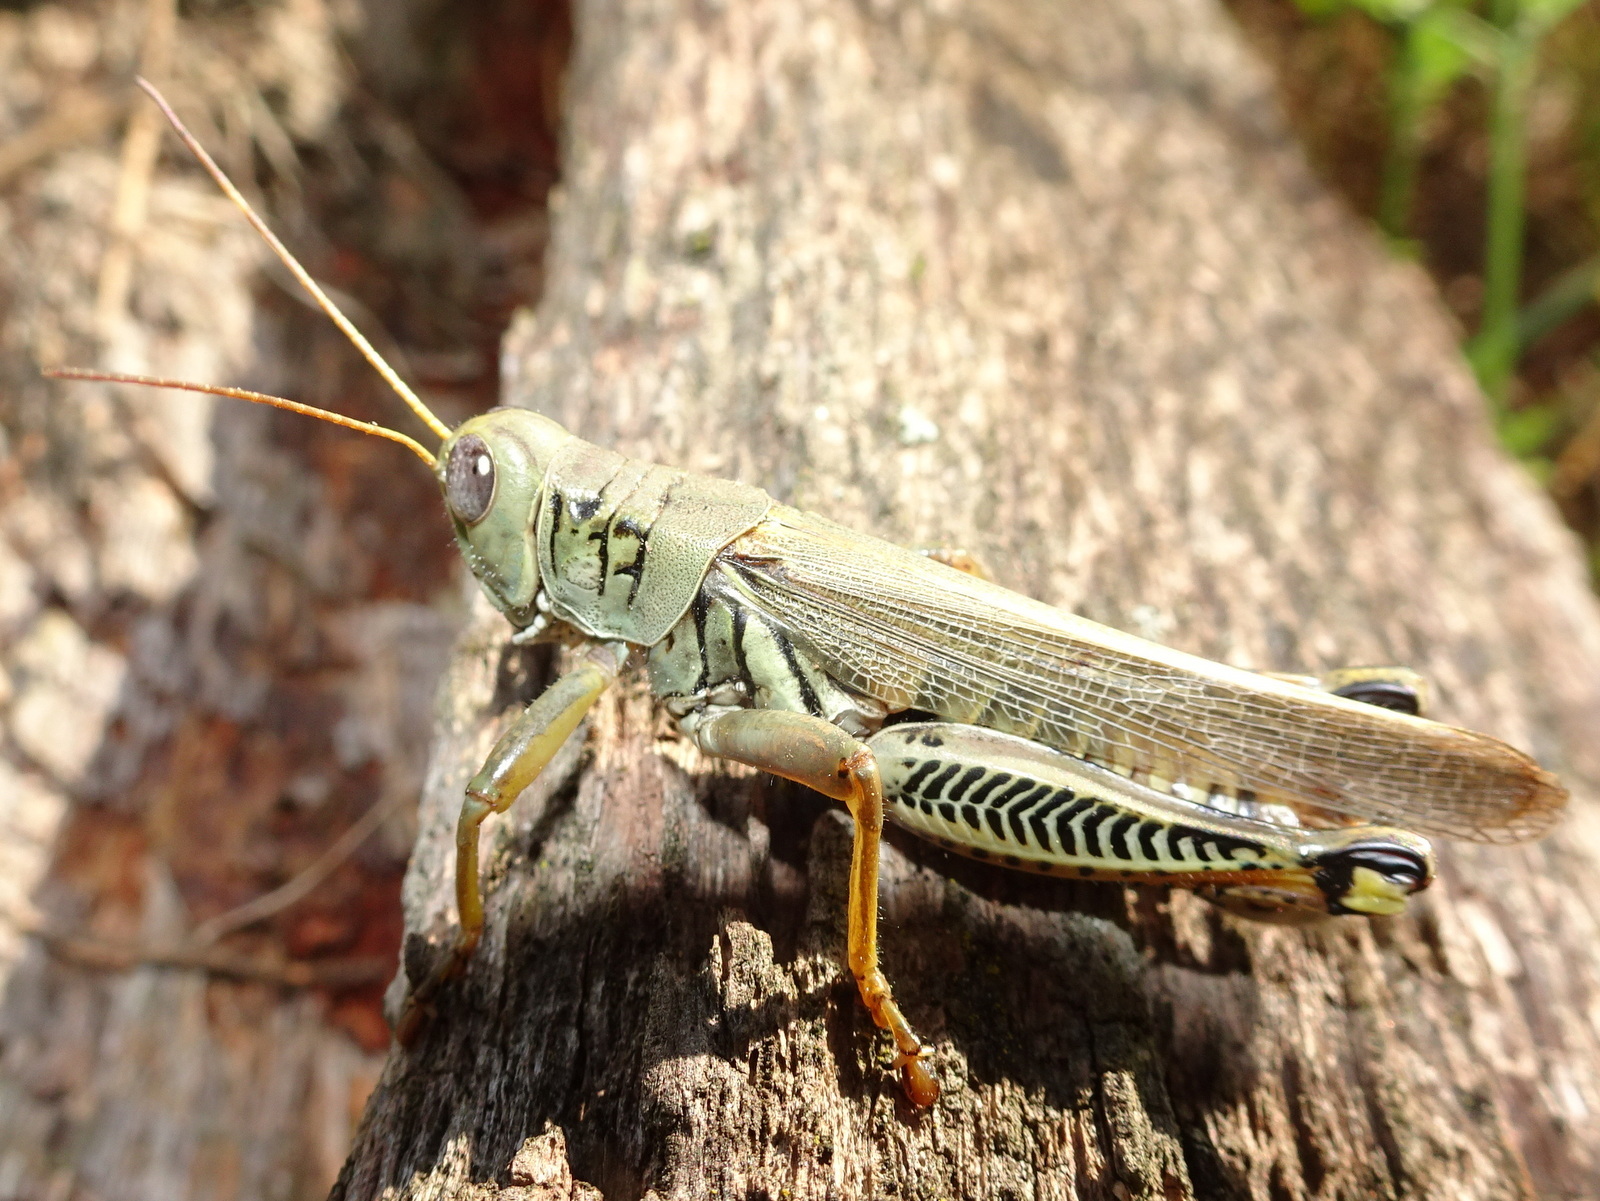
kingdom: Animalia
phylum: Arthropoda
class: Insecta
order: Orthoptera
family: Acrididae
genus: Melanoplus
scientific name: Melanoplus differentialis
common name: Differential grasshopper
